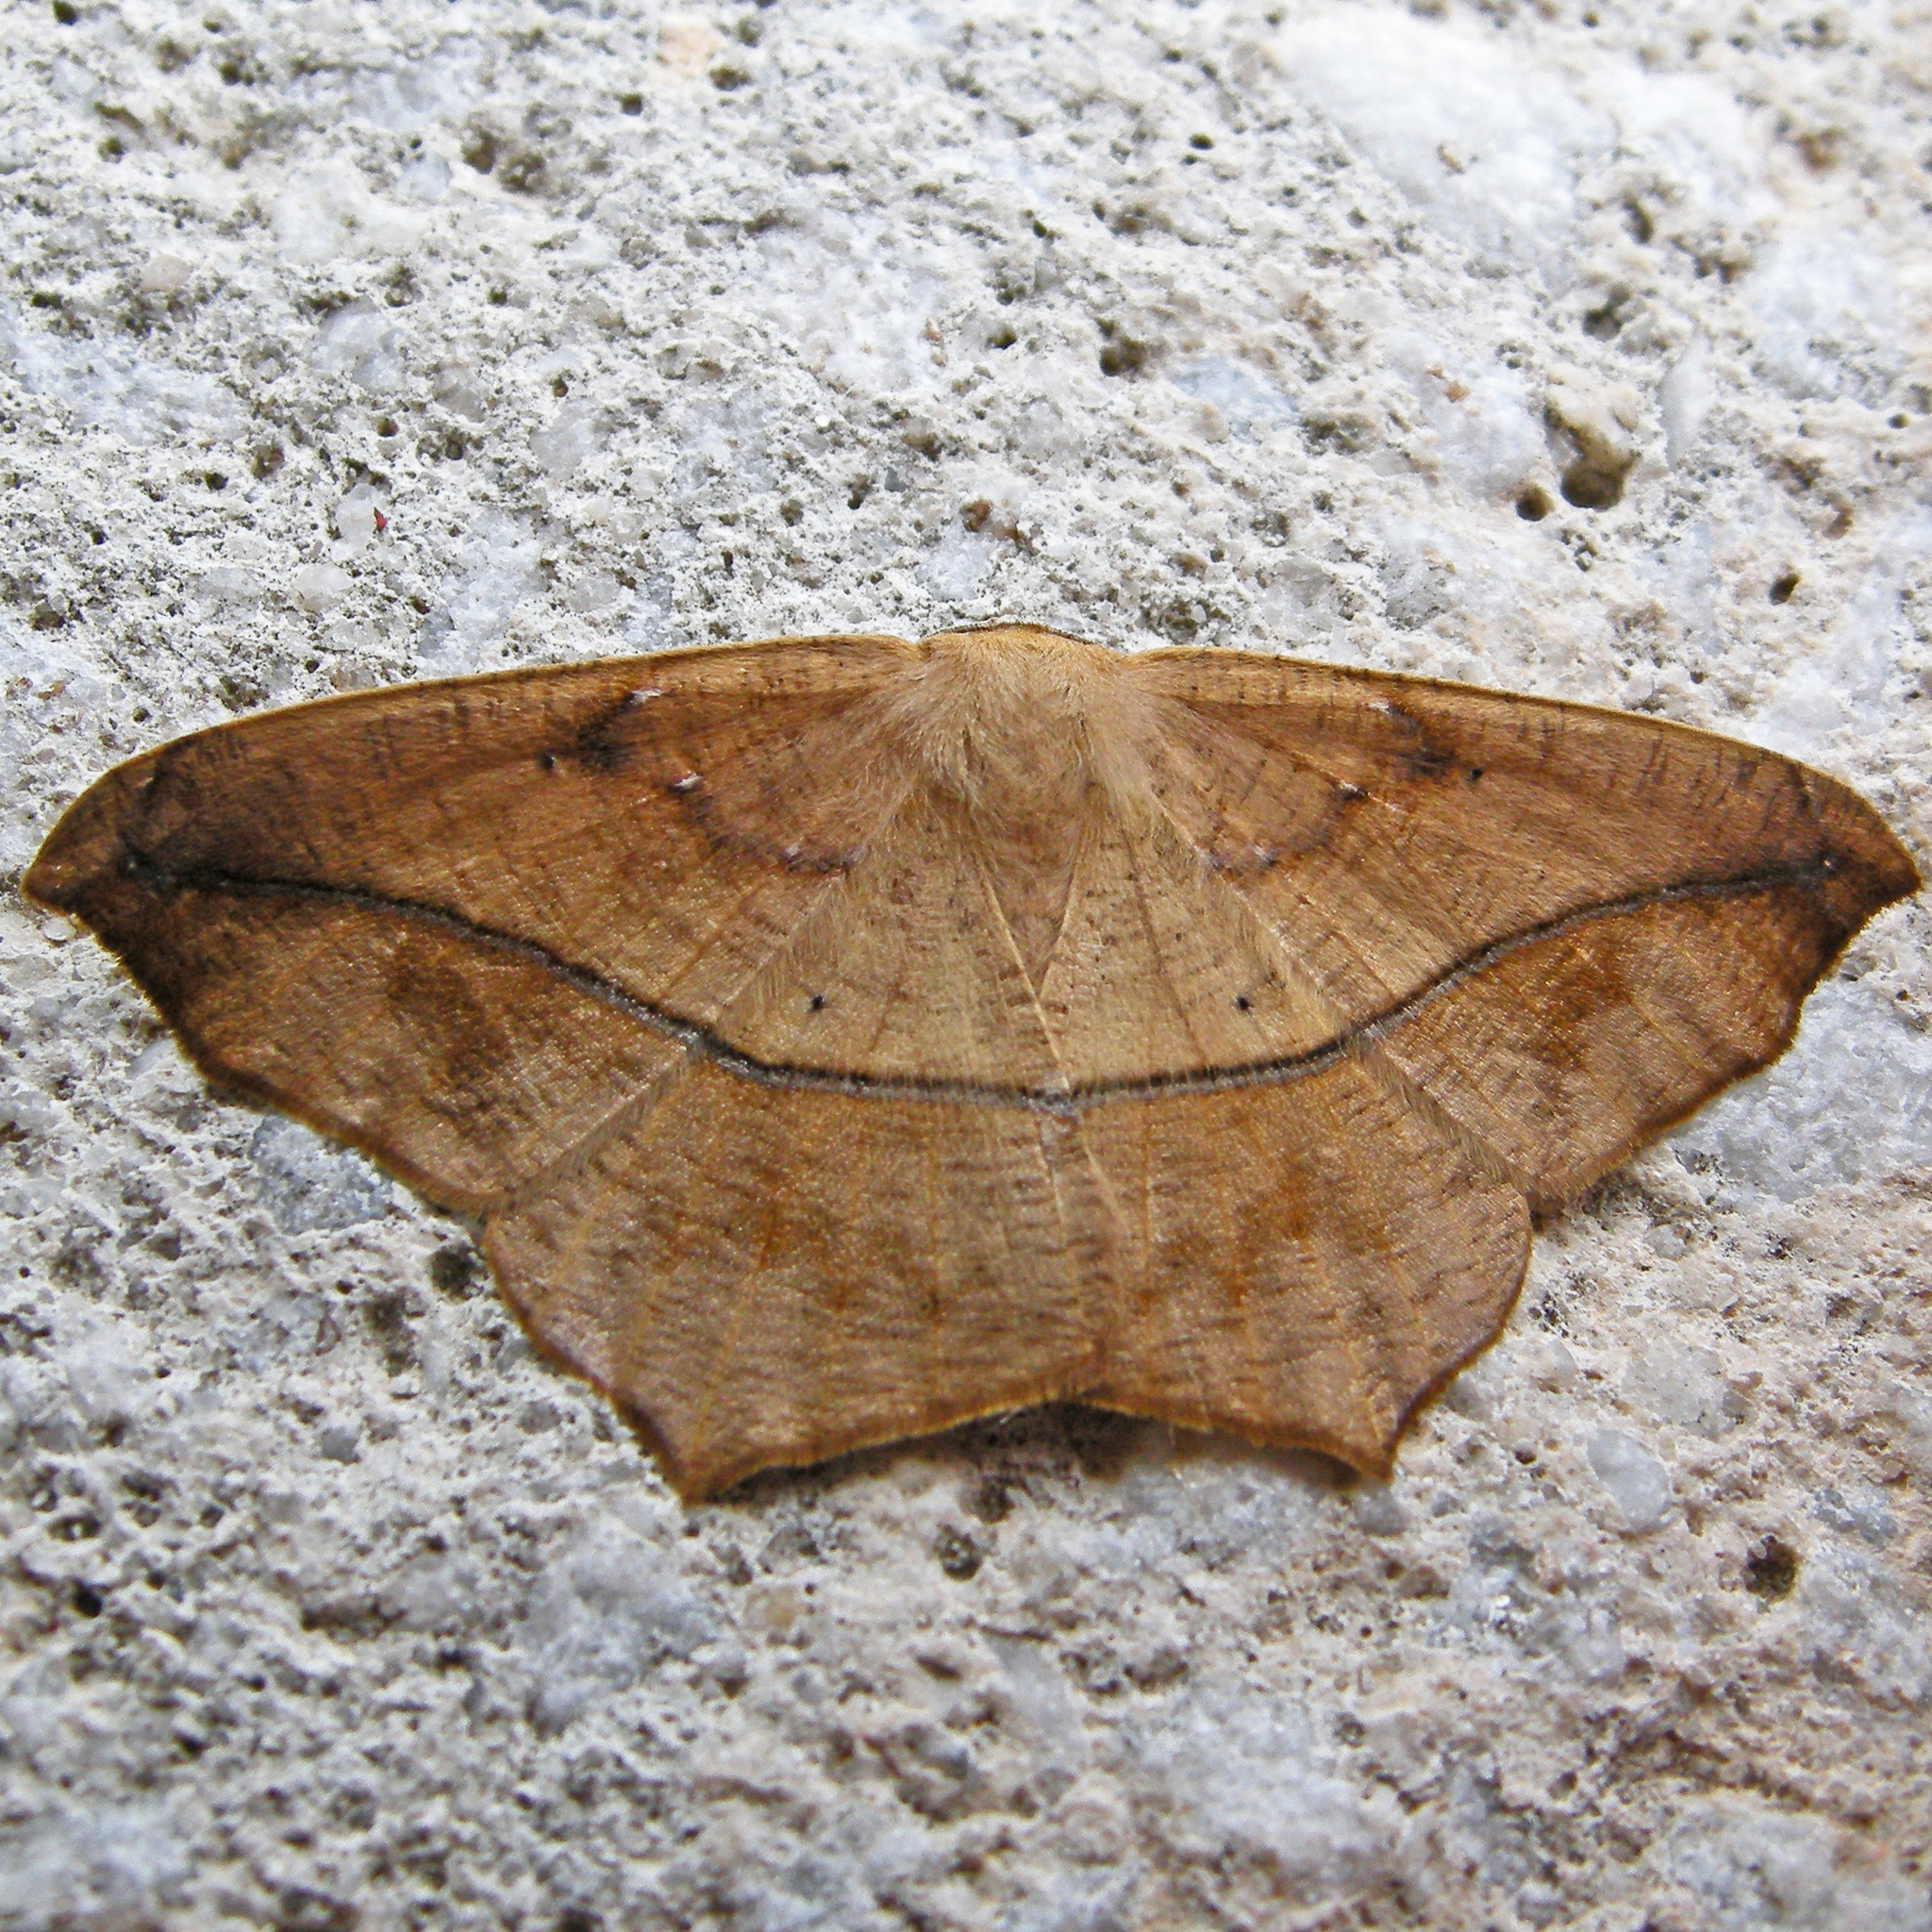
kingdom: Animalia
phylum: Arthropoda
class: Insecta
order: Lepidoptera
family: Geometridae
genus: Prochoerodes
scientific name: Prochoerodes lineola
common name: Large maple spanworm
